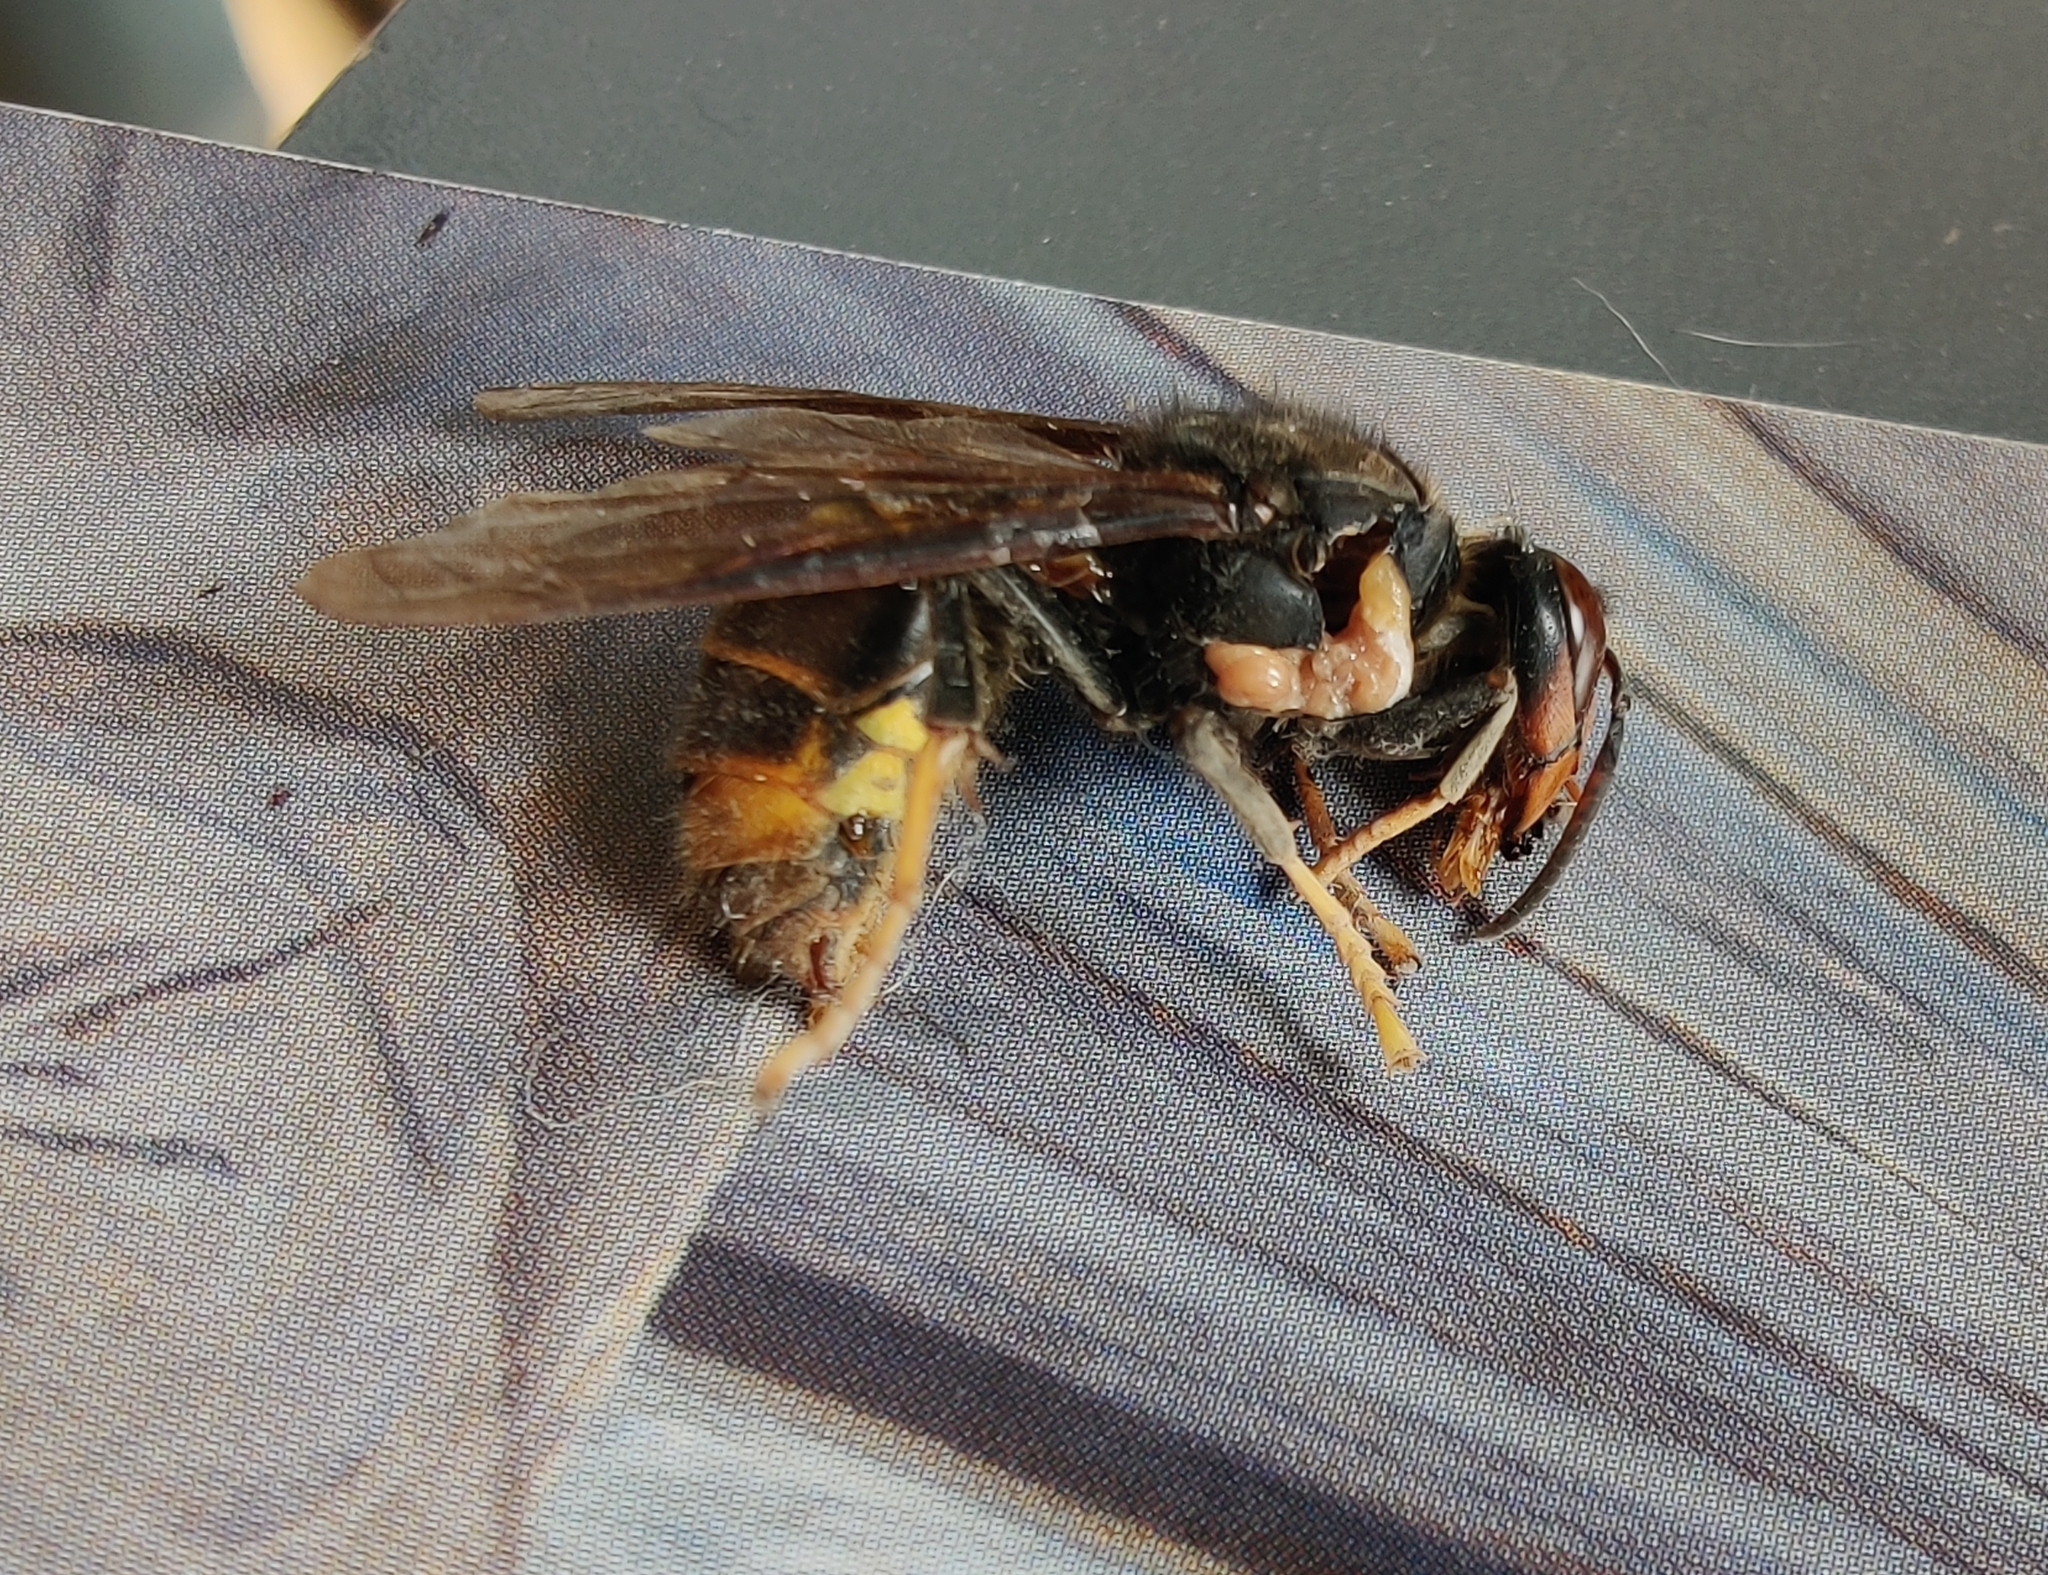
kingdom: Animalia
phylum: Arthropoda
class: Insecta
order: Hymenoptera
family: Vespidae
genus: Vespa
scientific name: Vespa velutina
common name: Asian hornet
